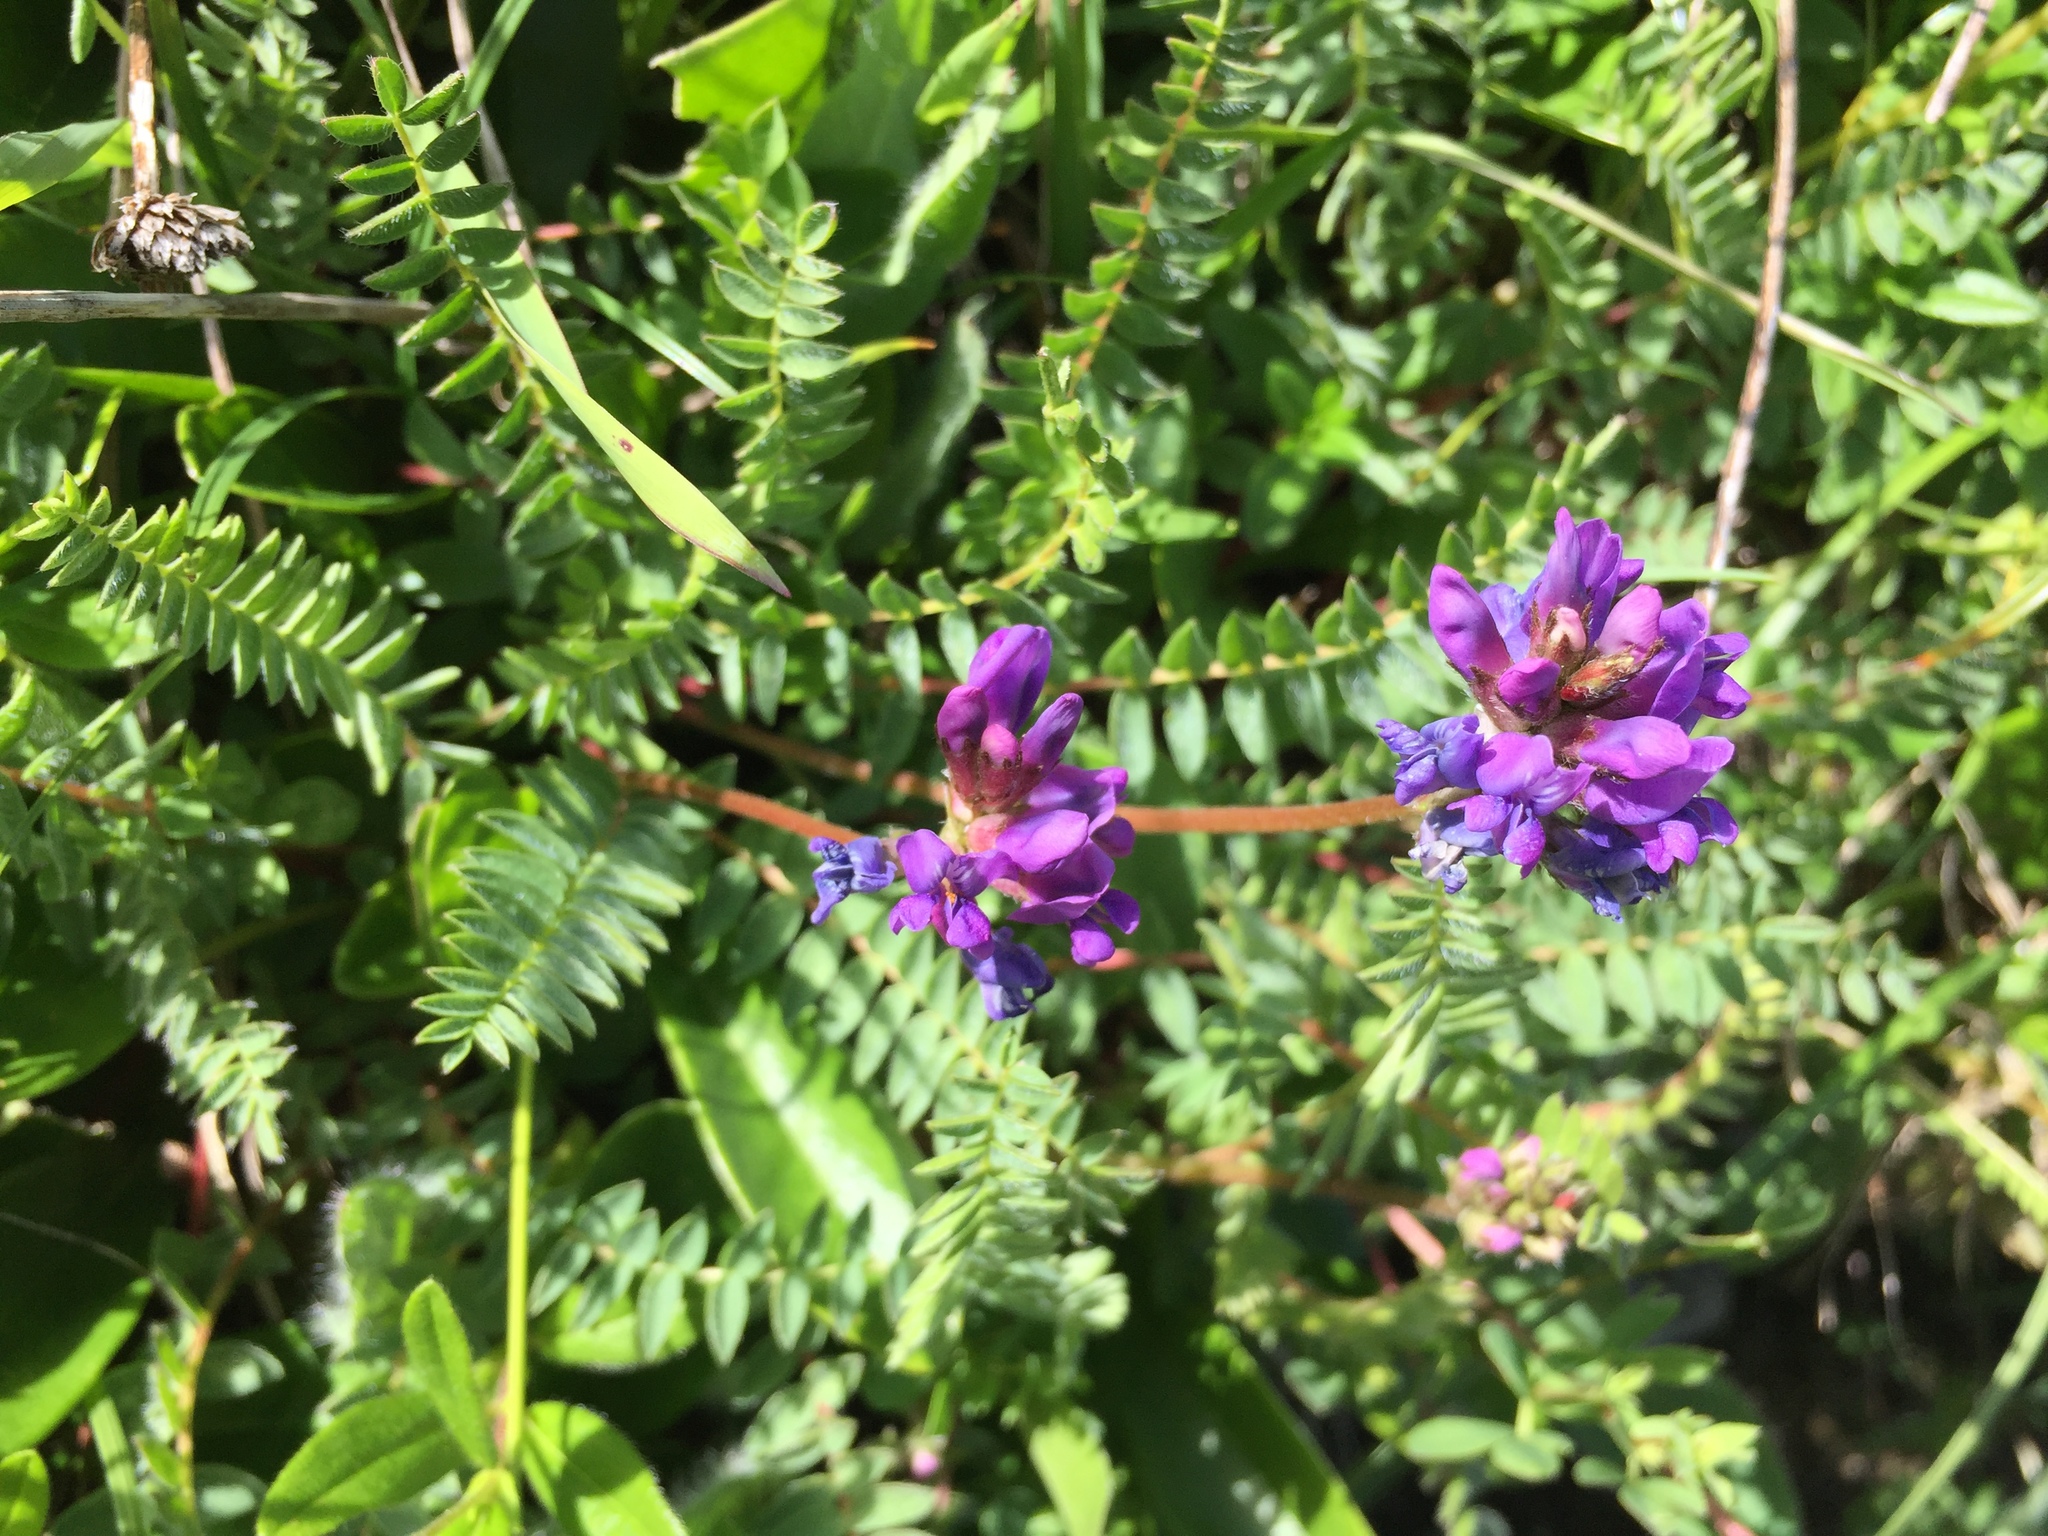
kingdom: Plantae
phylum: Tracheophyta
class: Magnoliopsida
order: Fabales
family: Fabaceae
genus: Oxytropis
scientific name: Oxytropis montana
